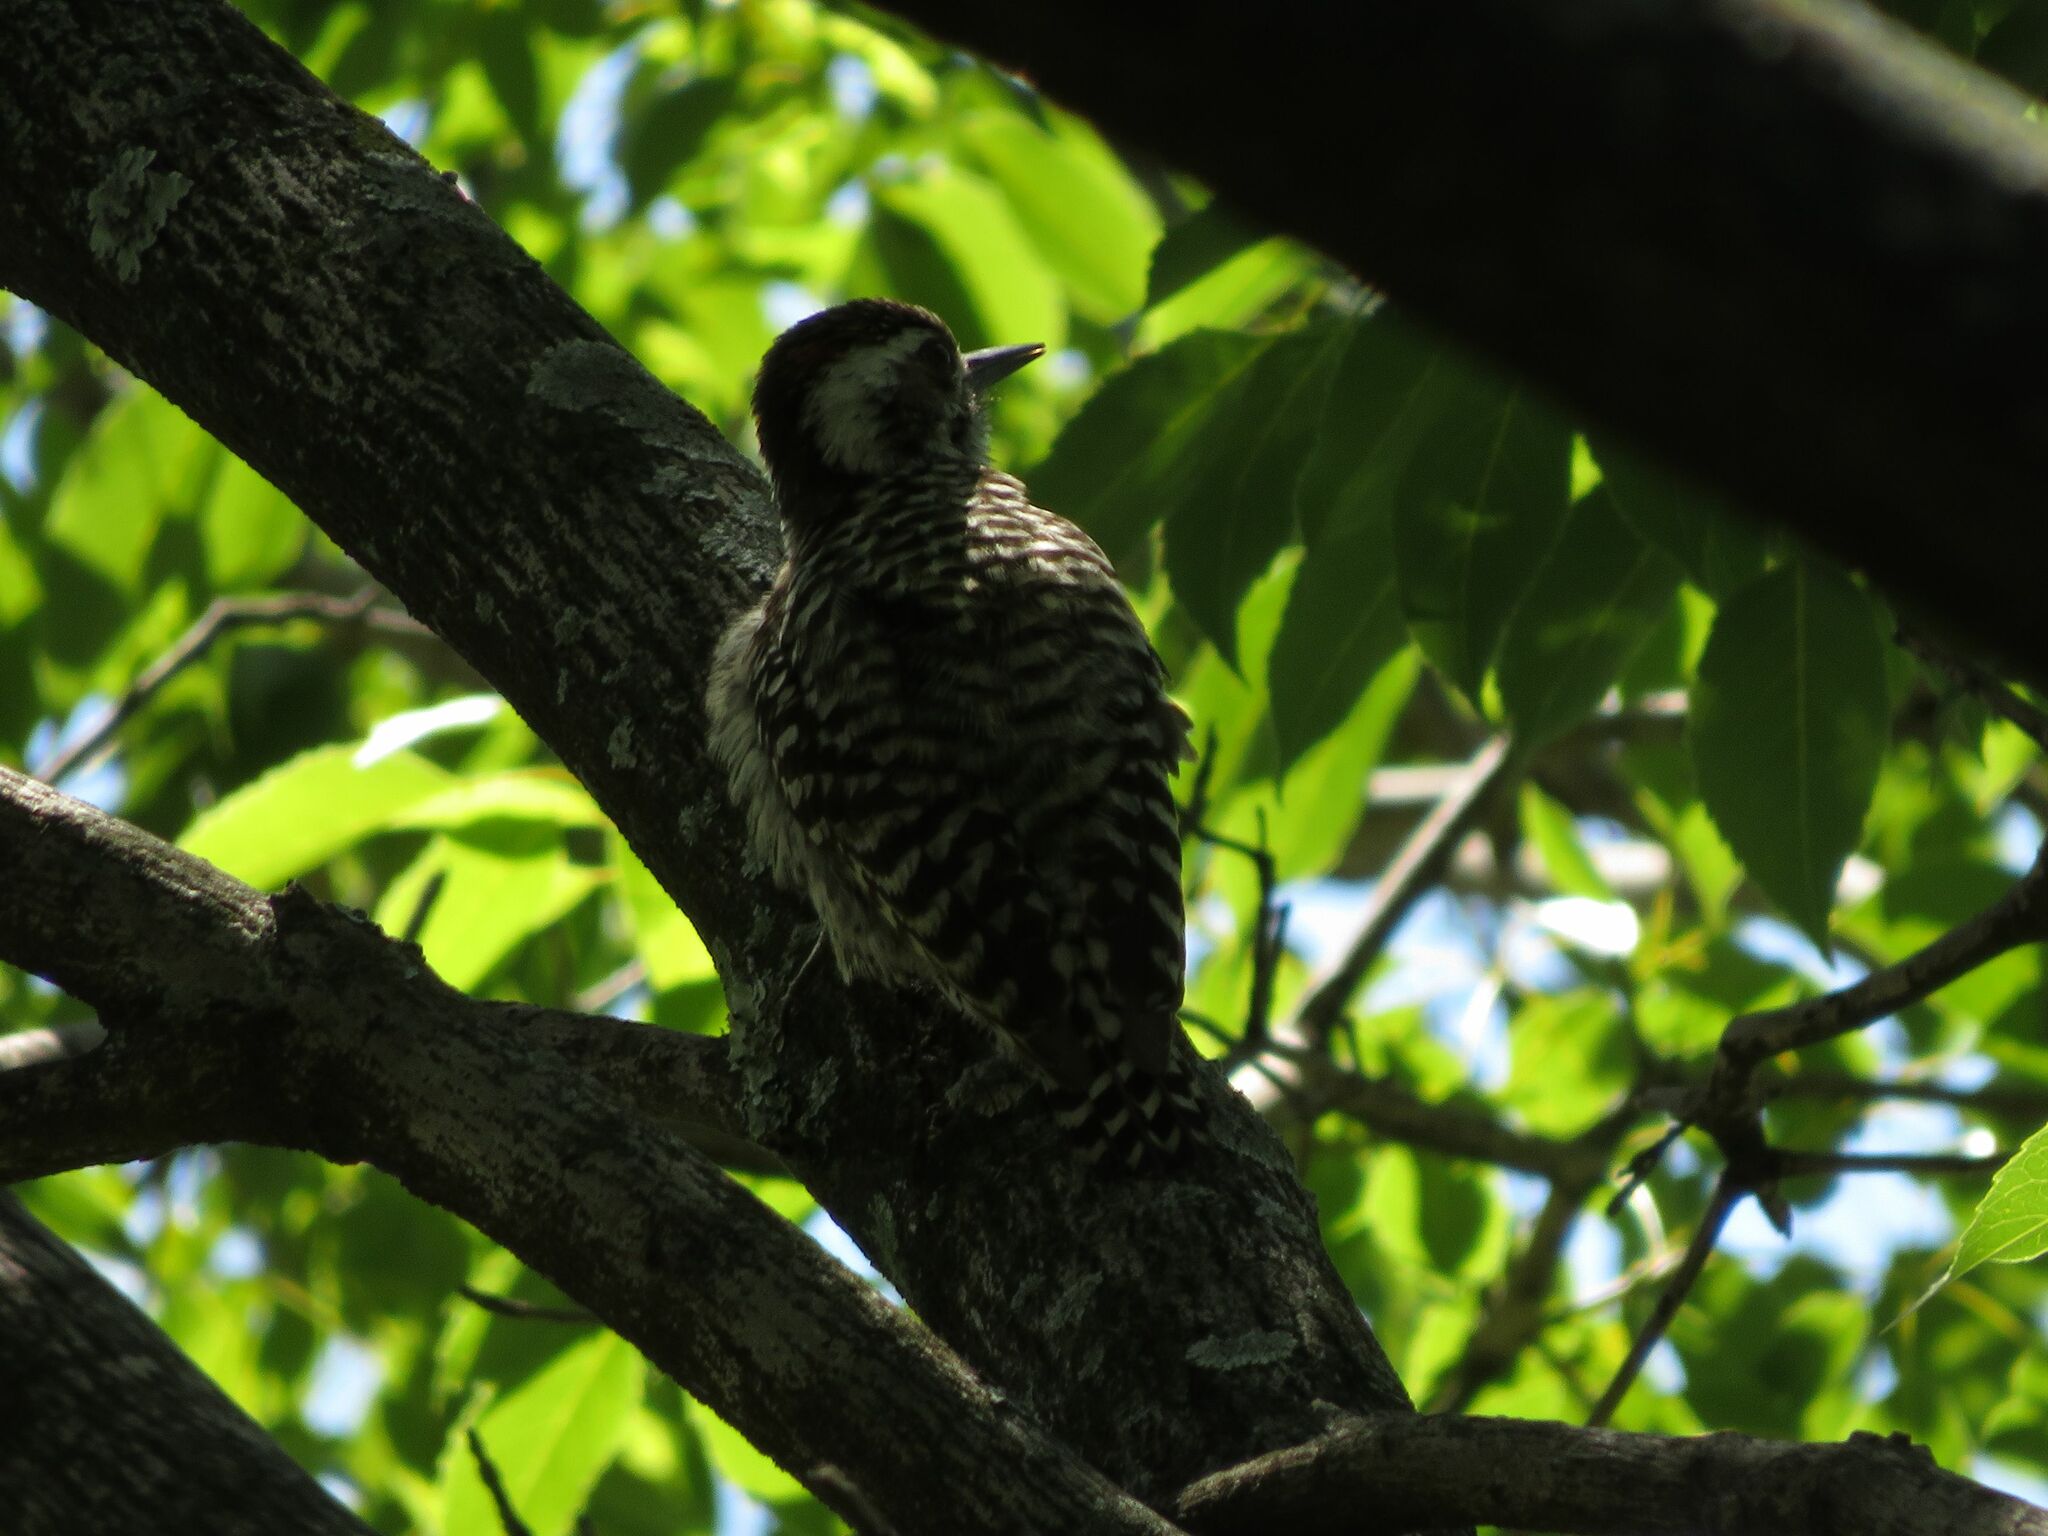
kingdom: Animalia
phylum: Chordata
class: Aves
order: Piciformes
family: Picidae
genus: Veniliornis
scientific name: Veniliornis mixtus
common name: Checkered woodpecker
